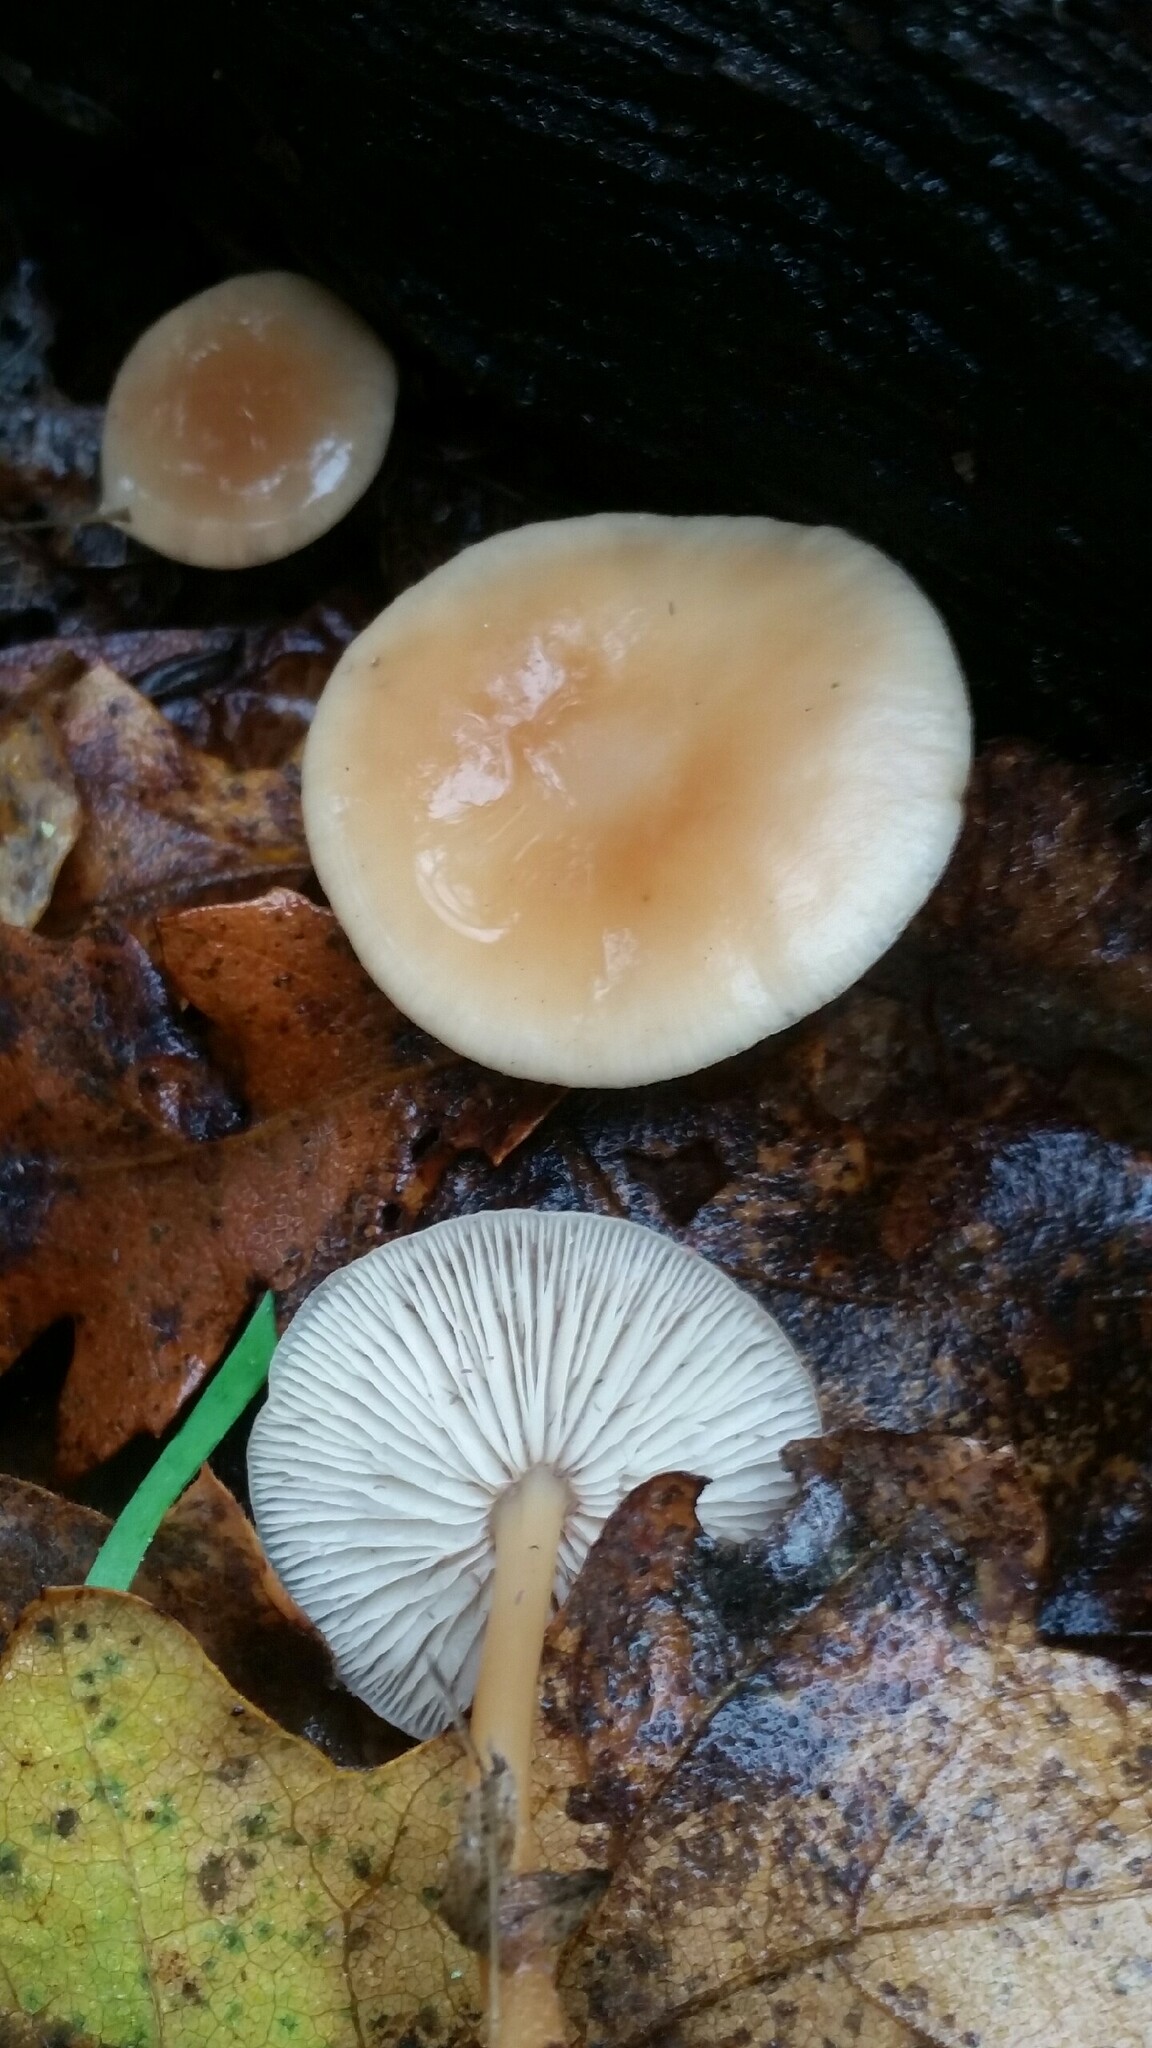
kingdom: Fungi
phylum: Basidiomycota
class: Agaricomycetes
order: Agaricales
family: Omphalotaceae
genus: Gymnopus
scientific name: Gymnopus dryophilus
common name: Penny top
